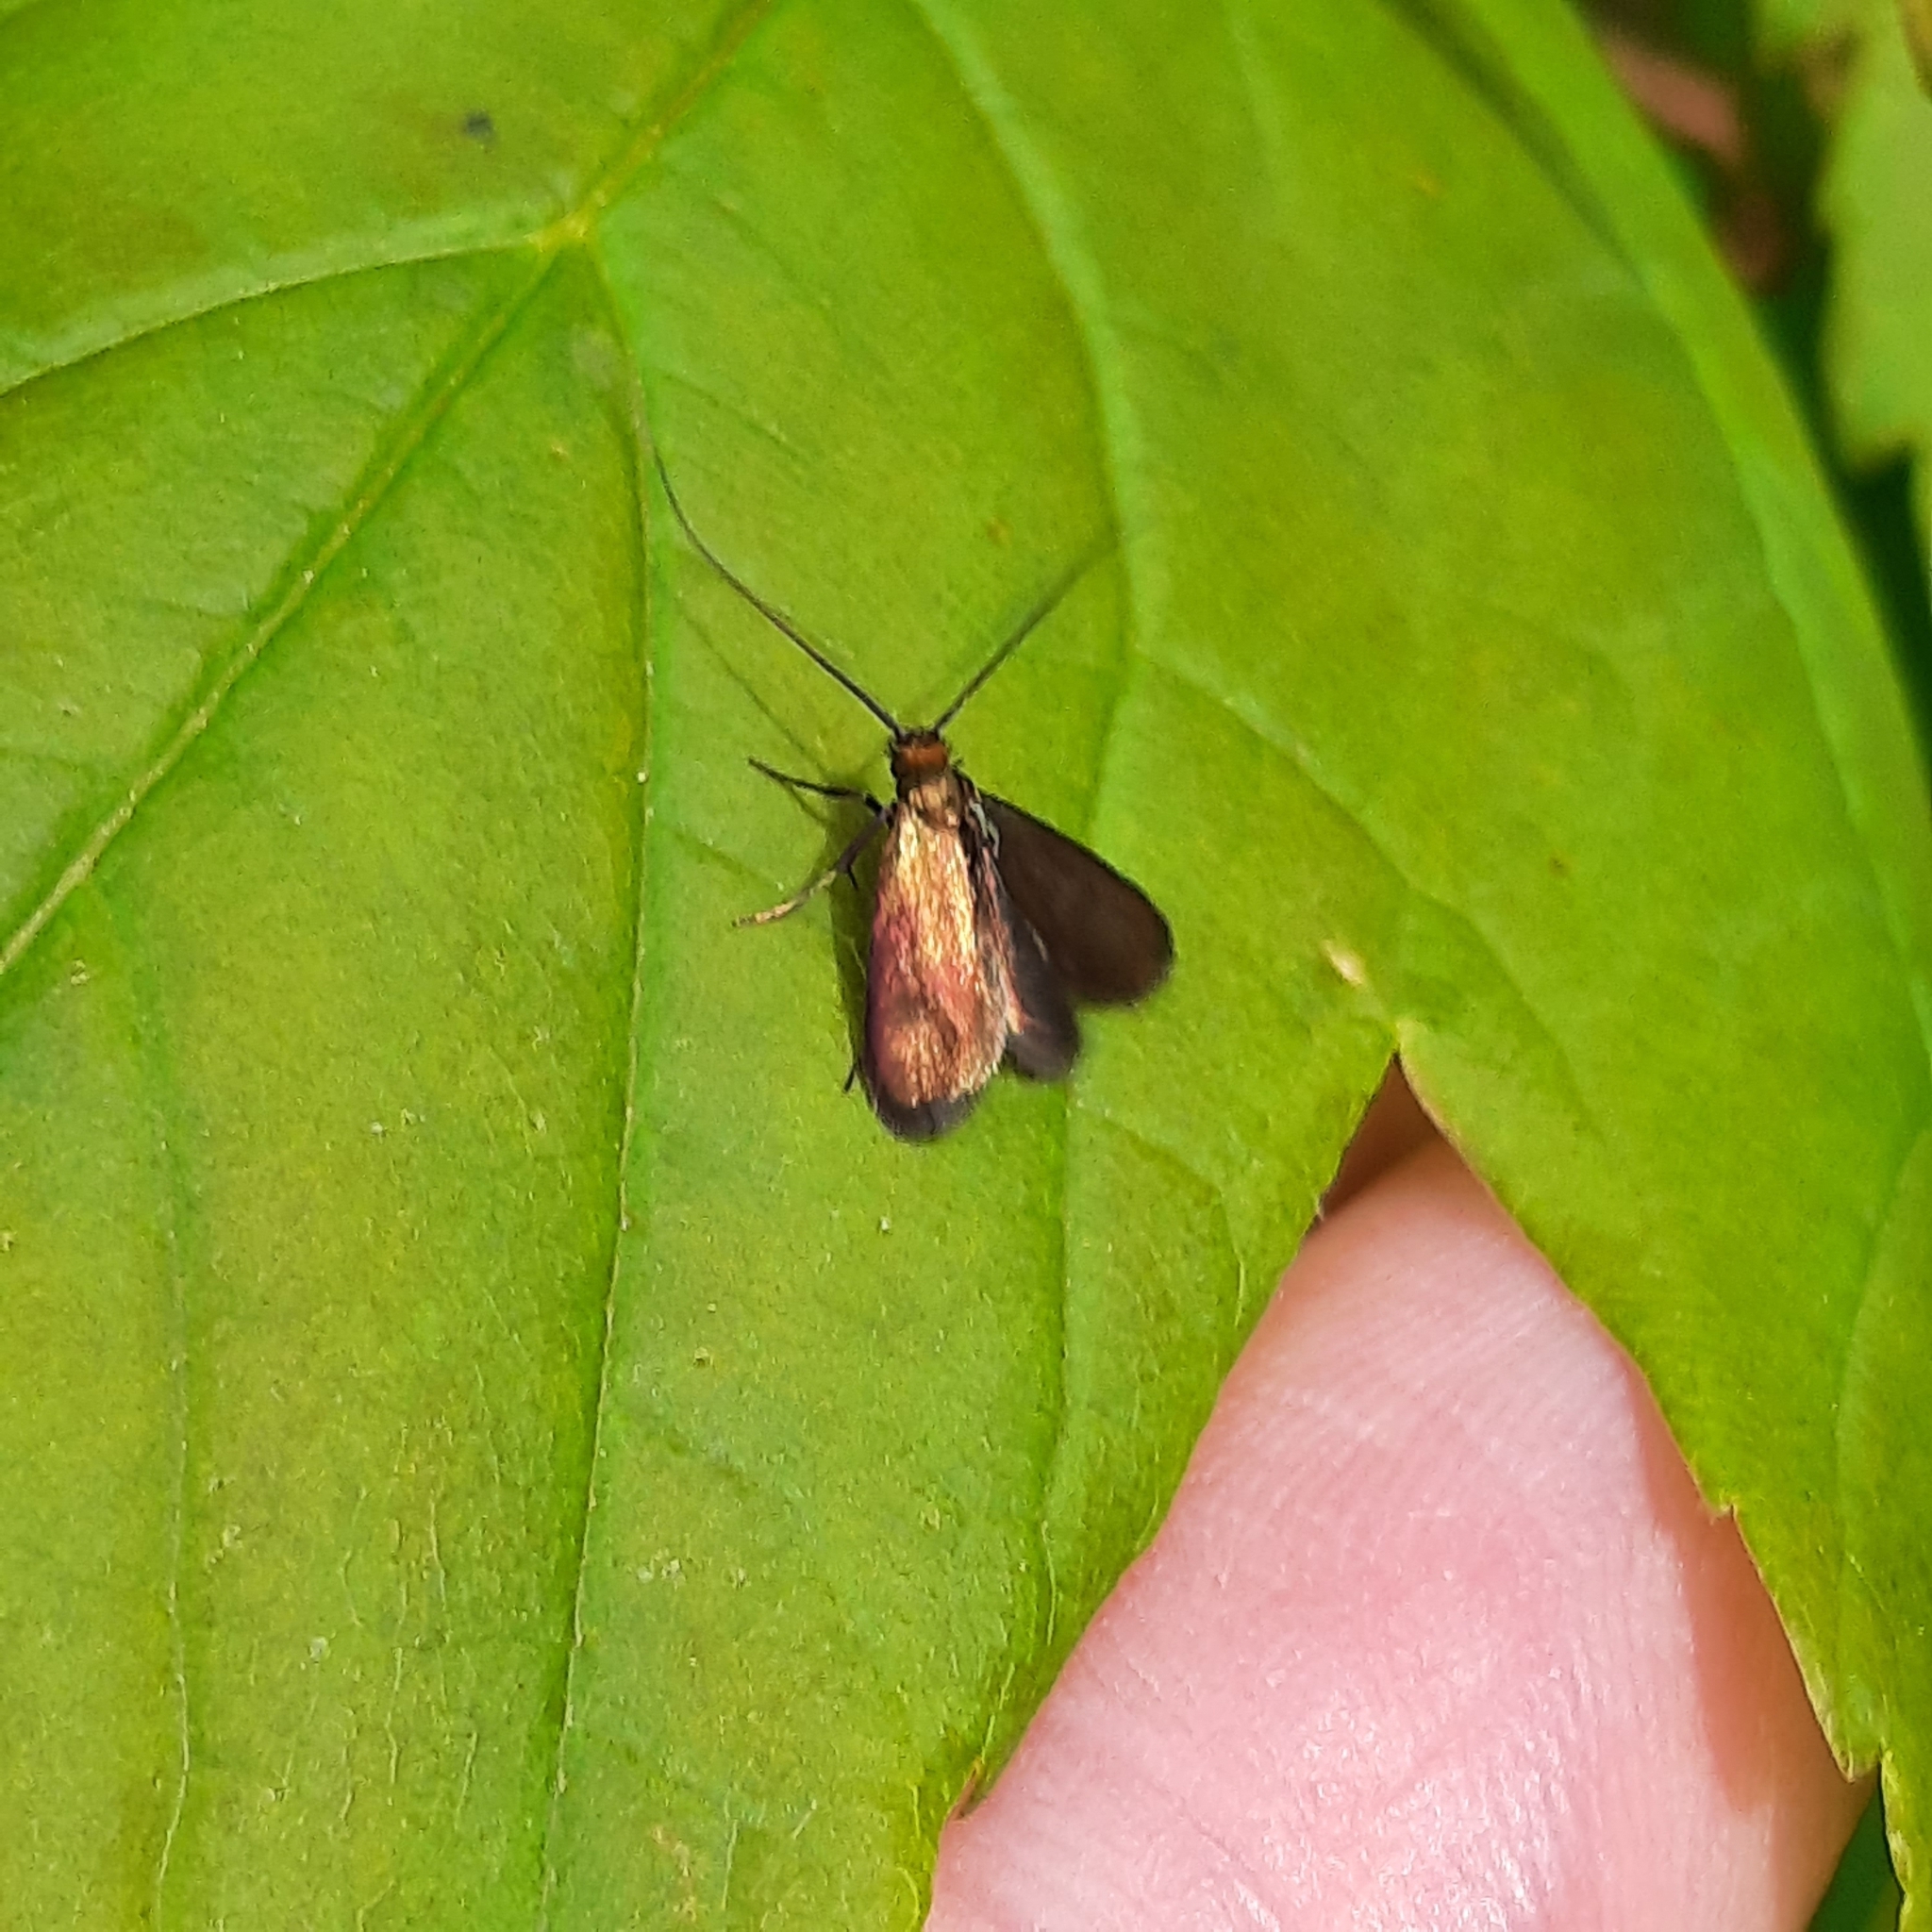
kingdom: Animalia
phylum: Arthropoda
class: Insecta
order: Lepidoptera
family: Adelidae
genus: Cauchas
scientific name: Cauchas rufimitrella
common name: Meadow long-horn
